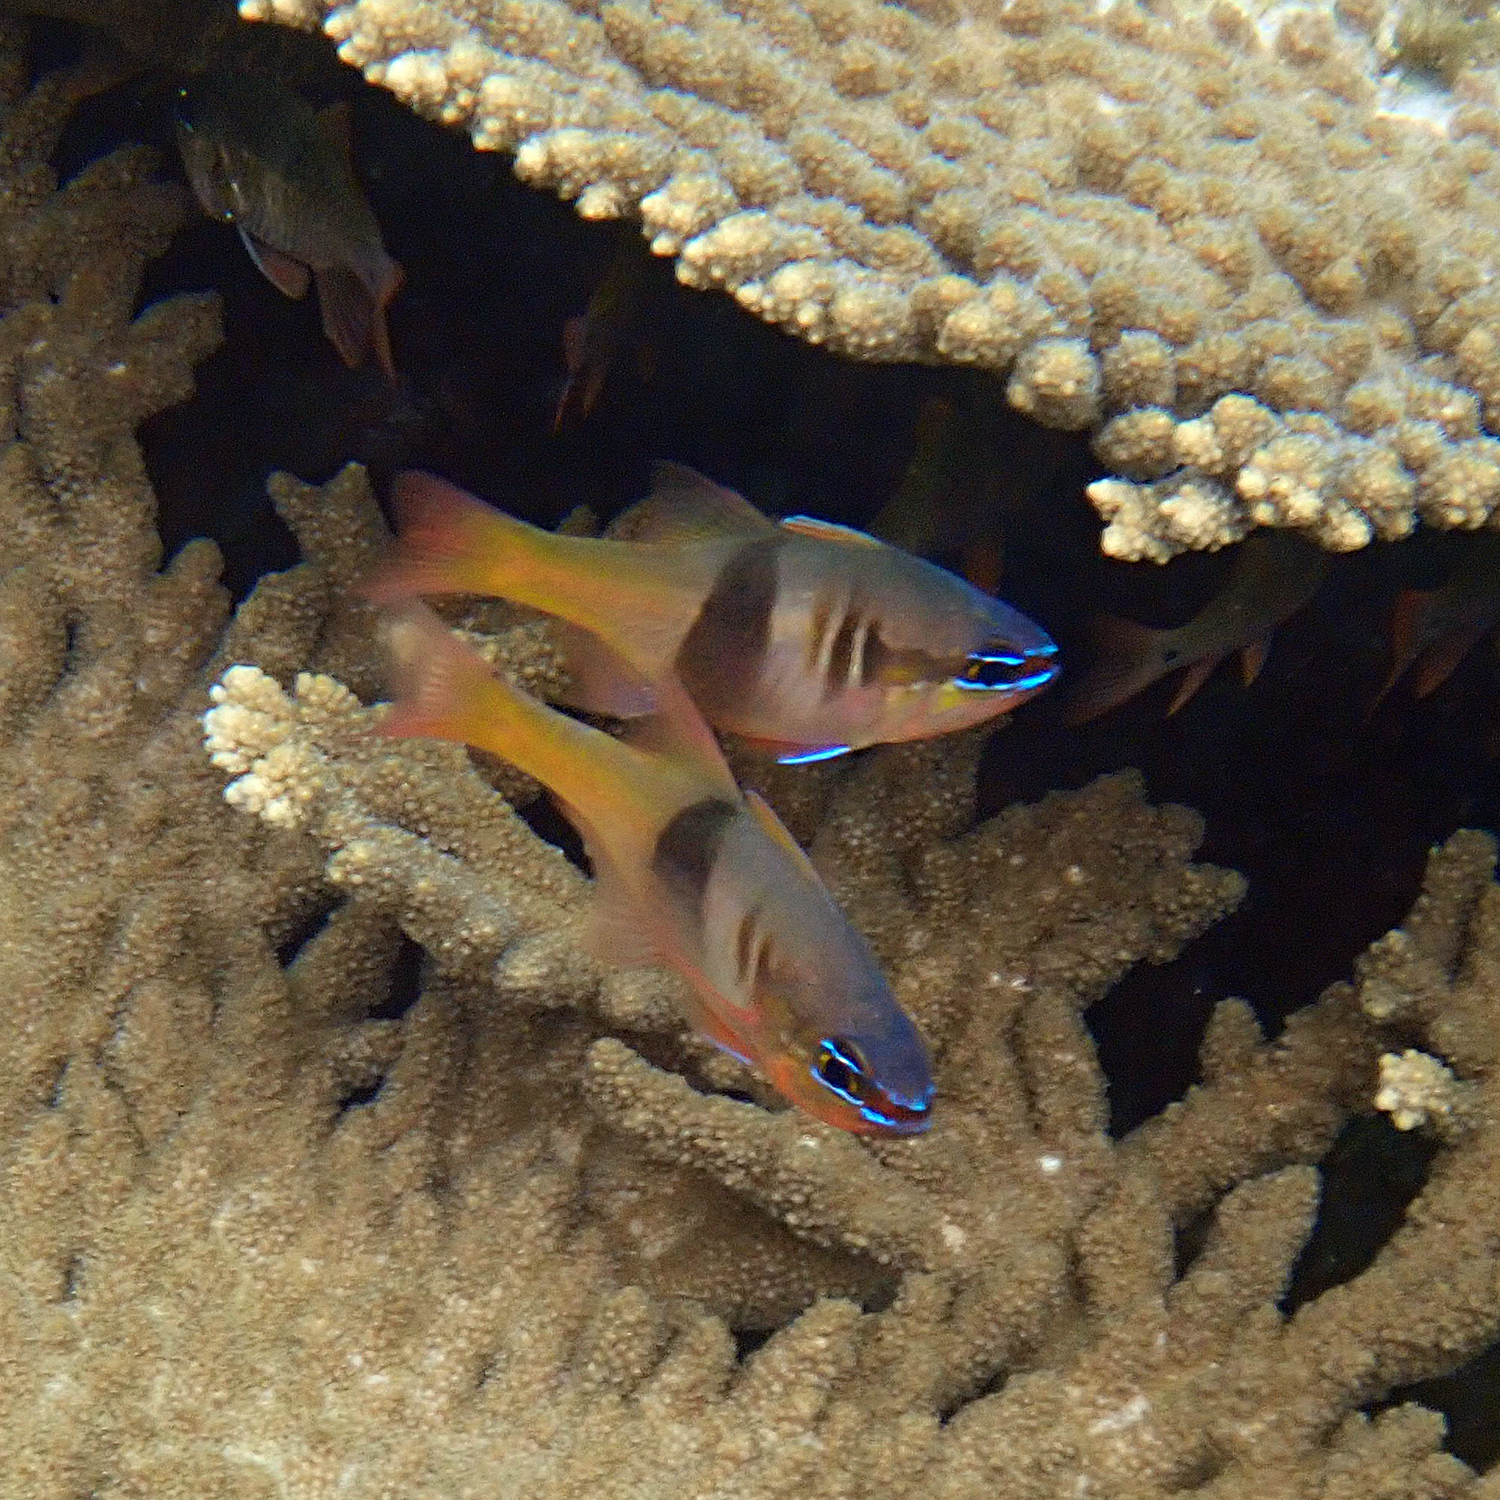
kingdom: Animalia
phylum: Chordata
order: Perciformes
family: Apogonidae
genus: Taeniamia
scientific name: Taeniamia leai
